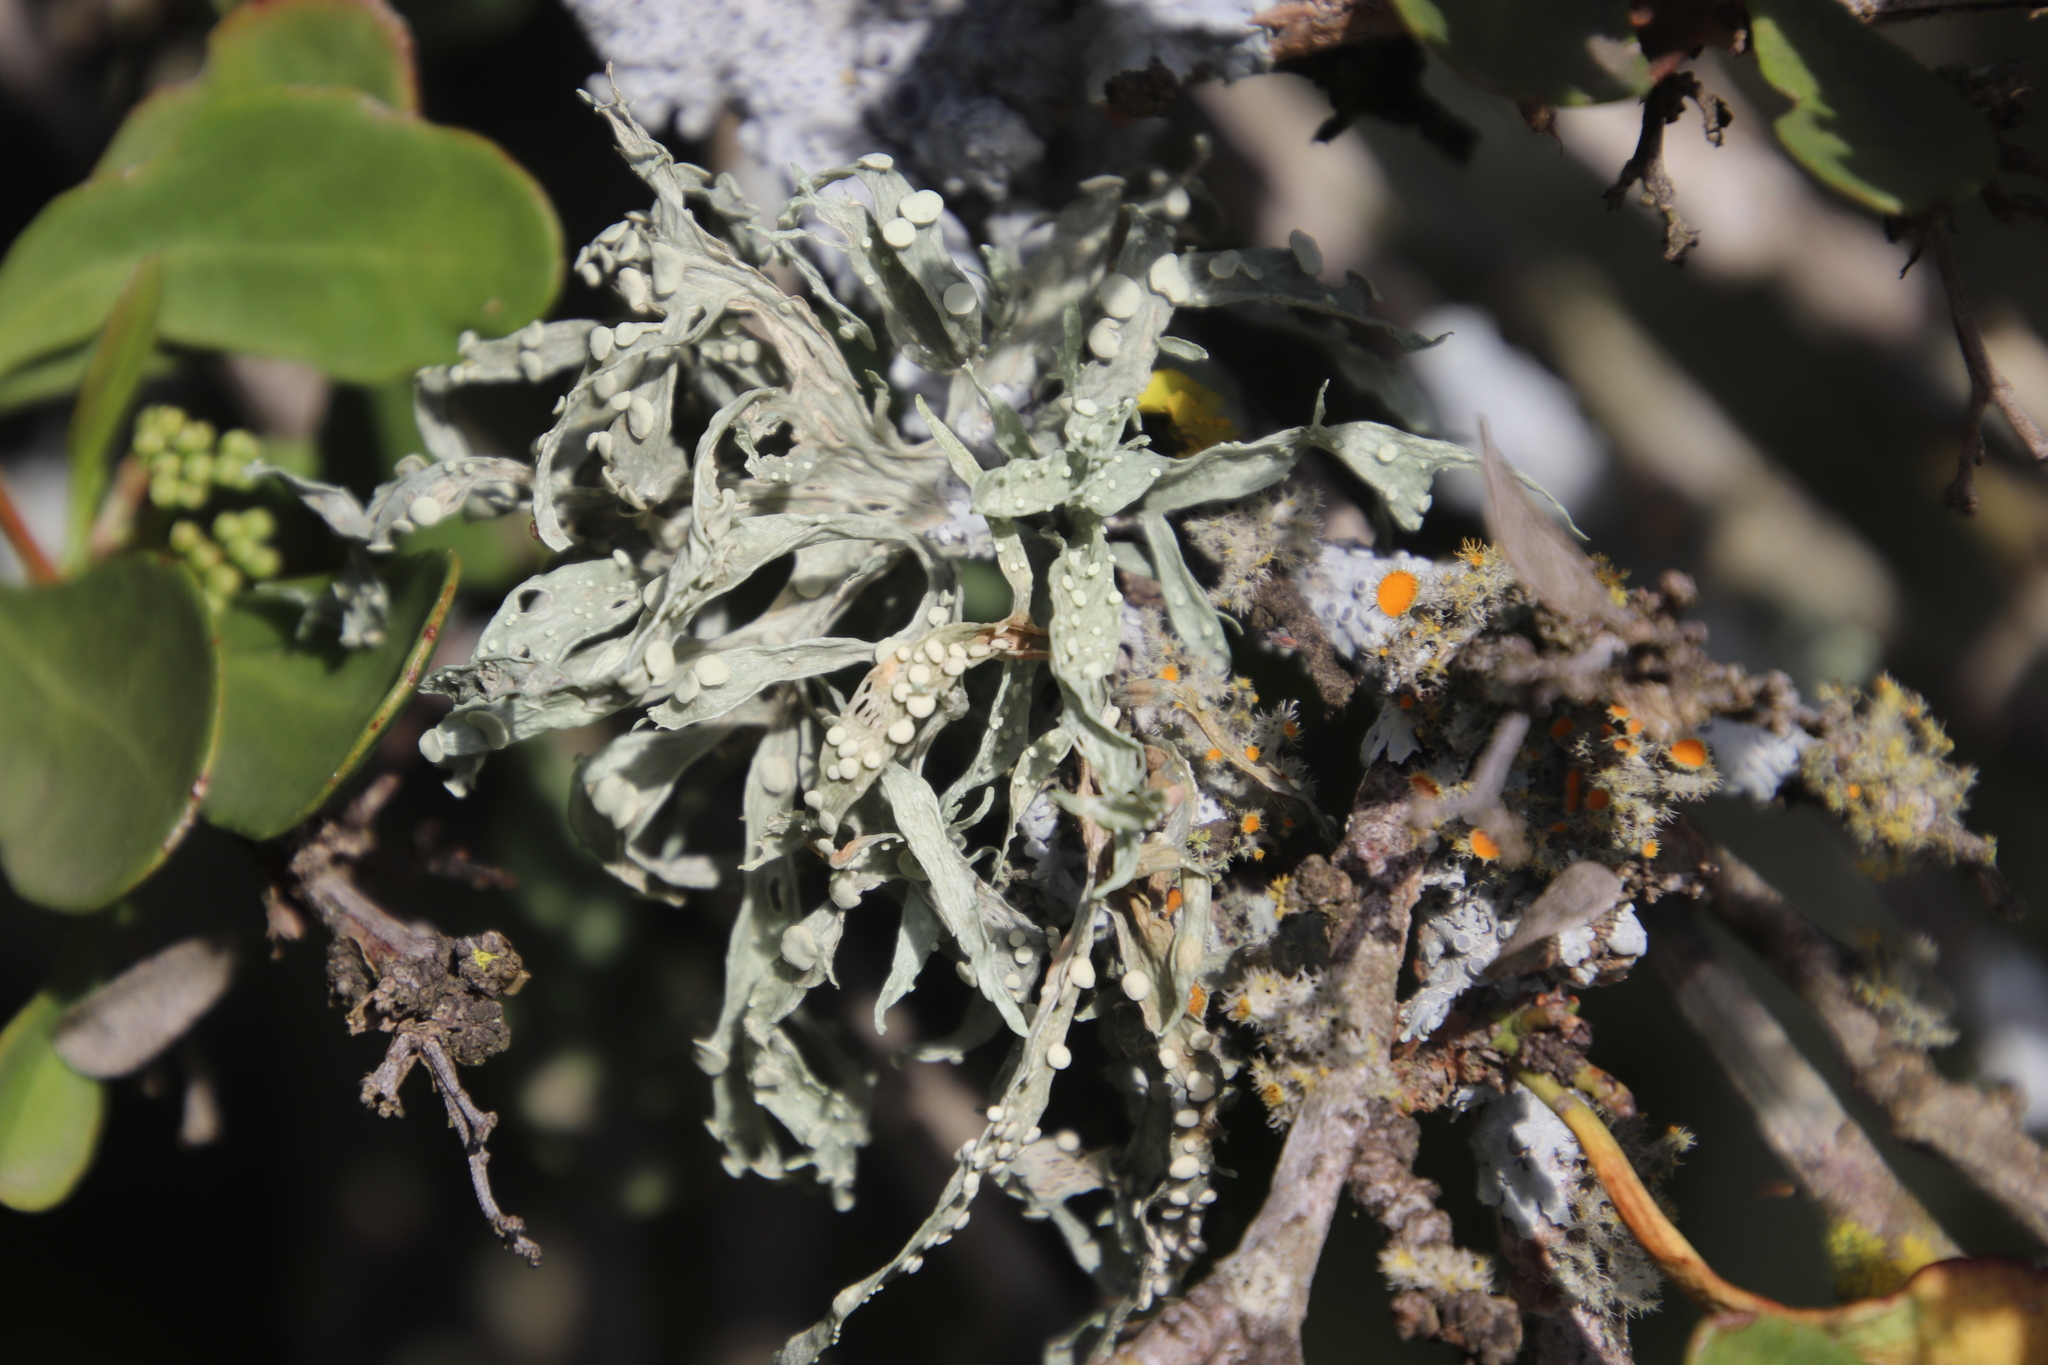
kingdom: Fungi
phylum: Ascomycota
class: Lecanoromycetes
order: Lecanorales
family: Ramalinaceae
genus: Ramalina
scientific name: Ramalina celastri
